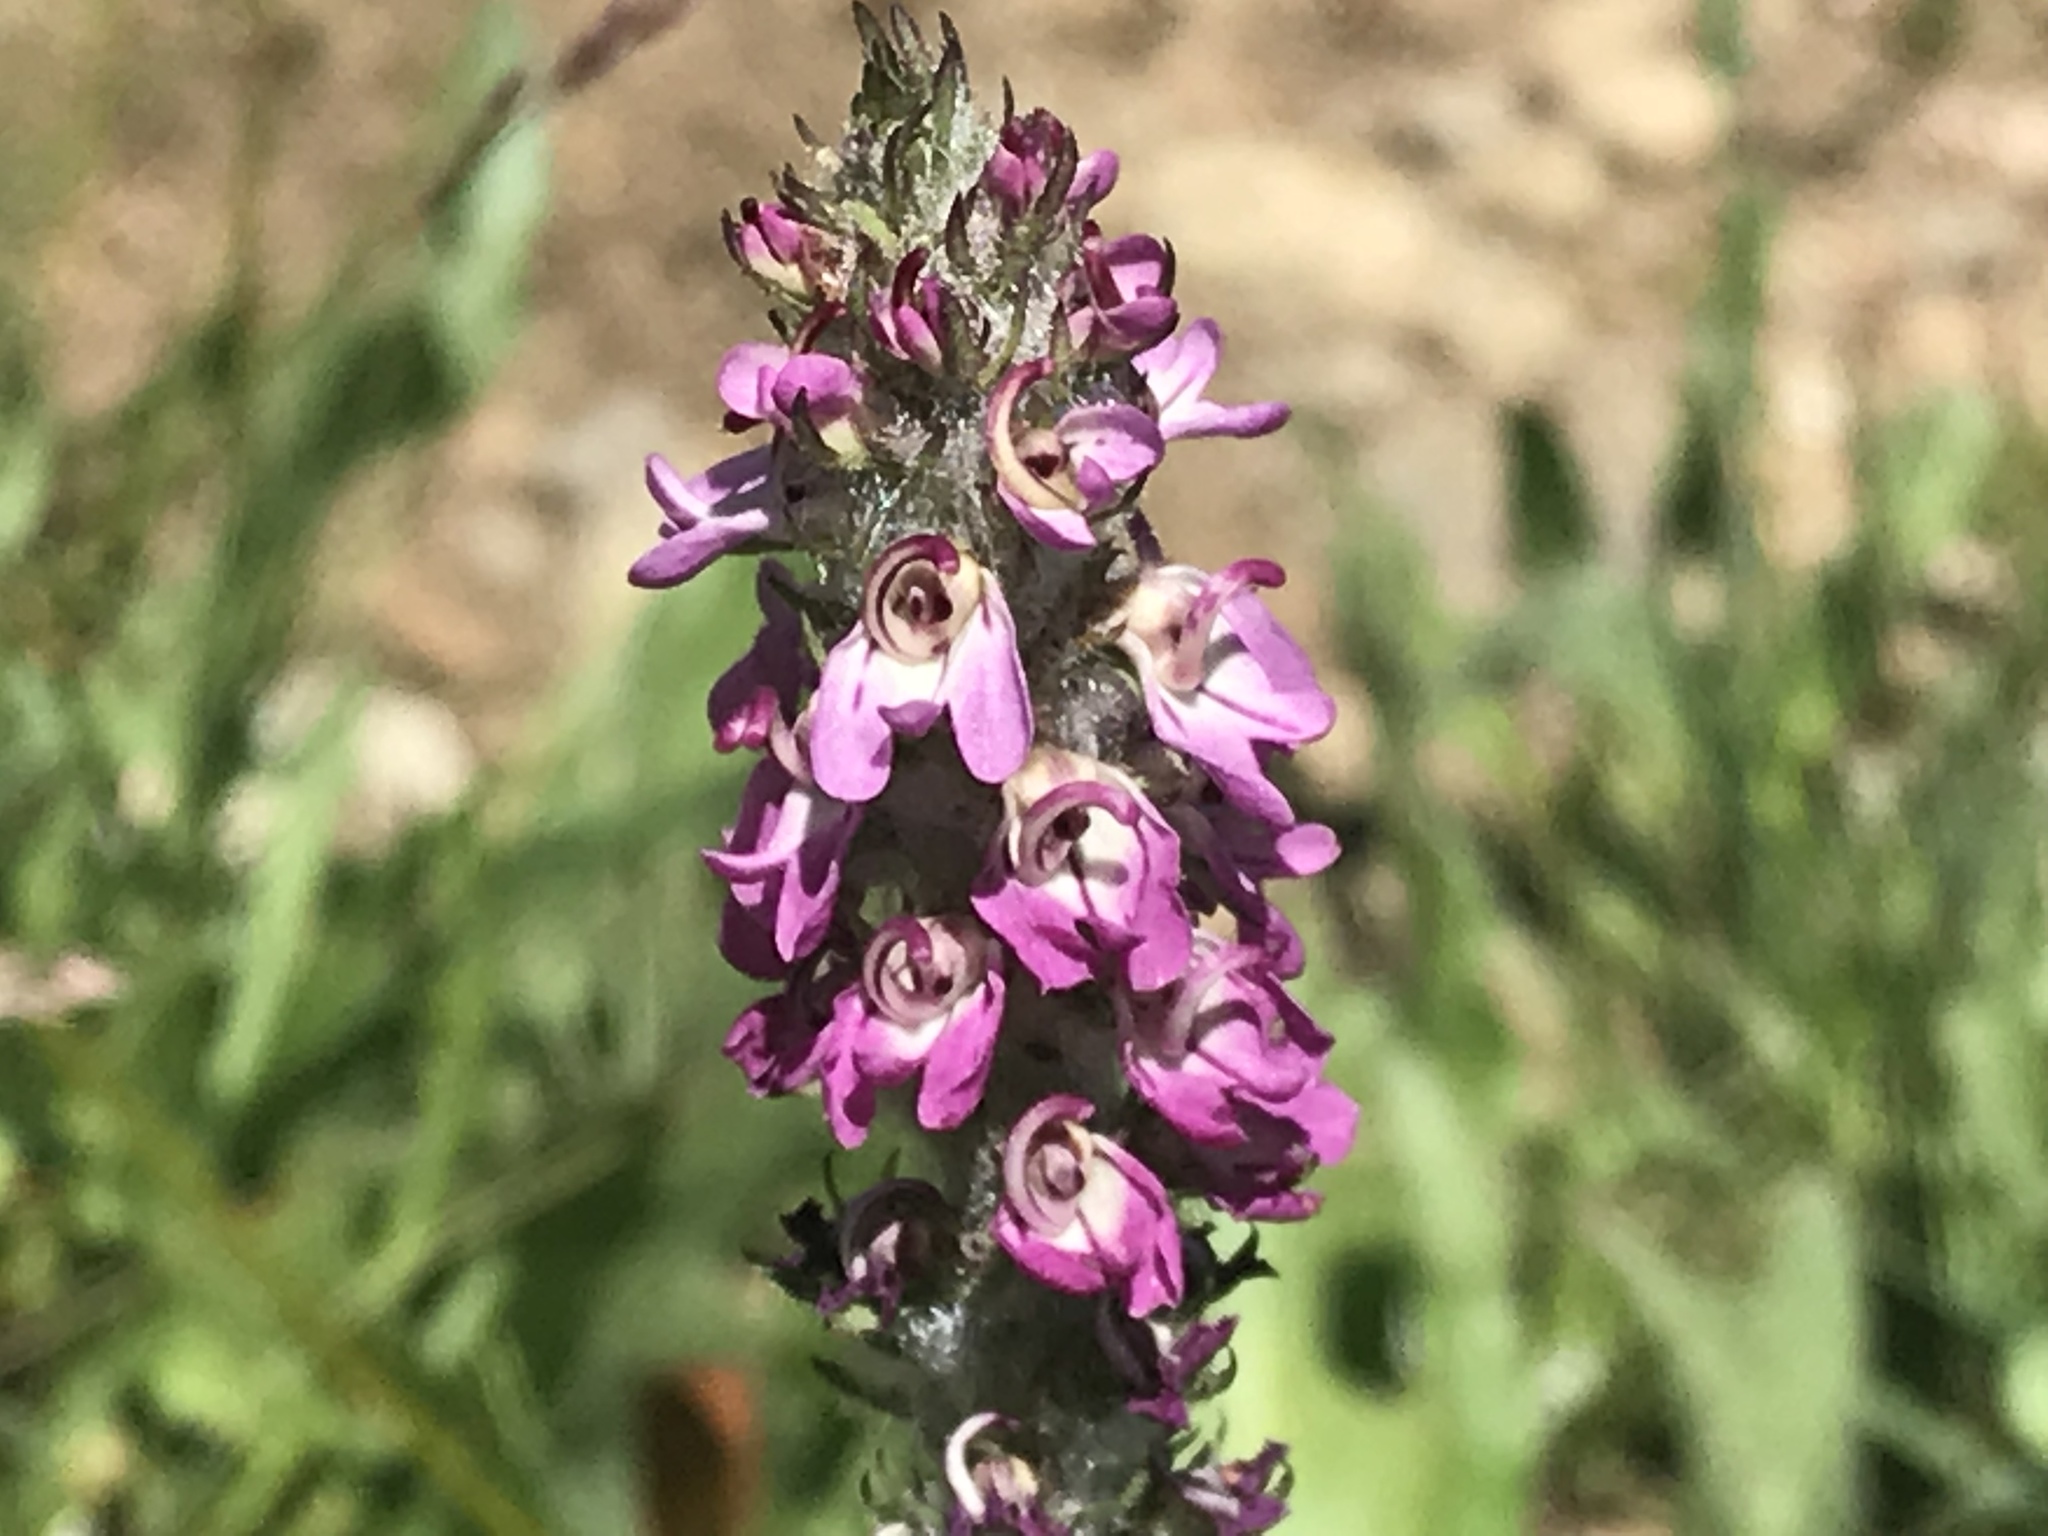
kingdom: Plantae
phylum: Tracheophyta
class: Magnoliopsida
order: Lamiales
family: Orobanchaceae
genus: Pedicularis
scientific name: Pedicularis attollens
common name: Slender pedicularis
